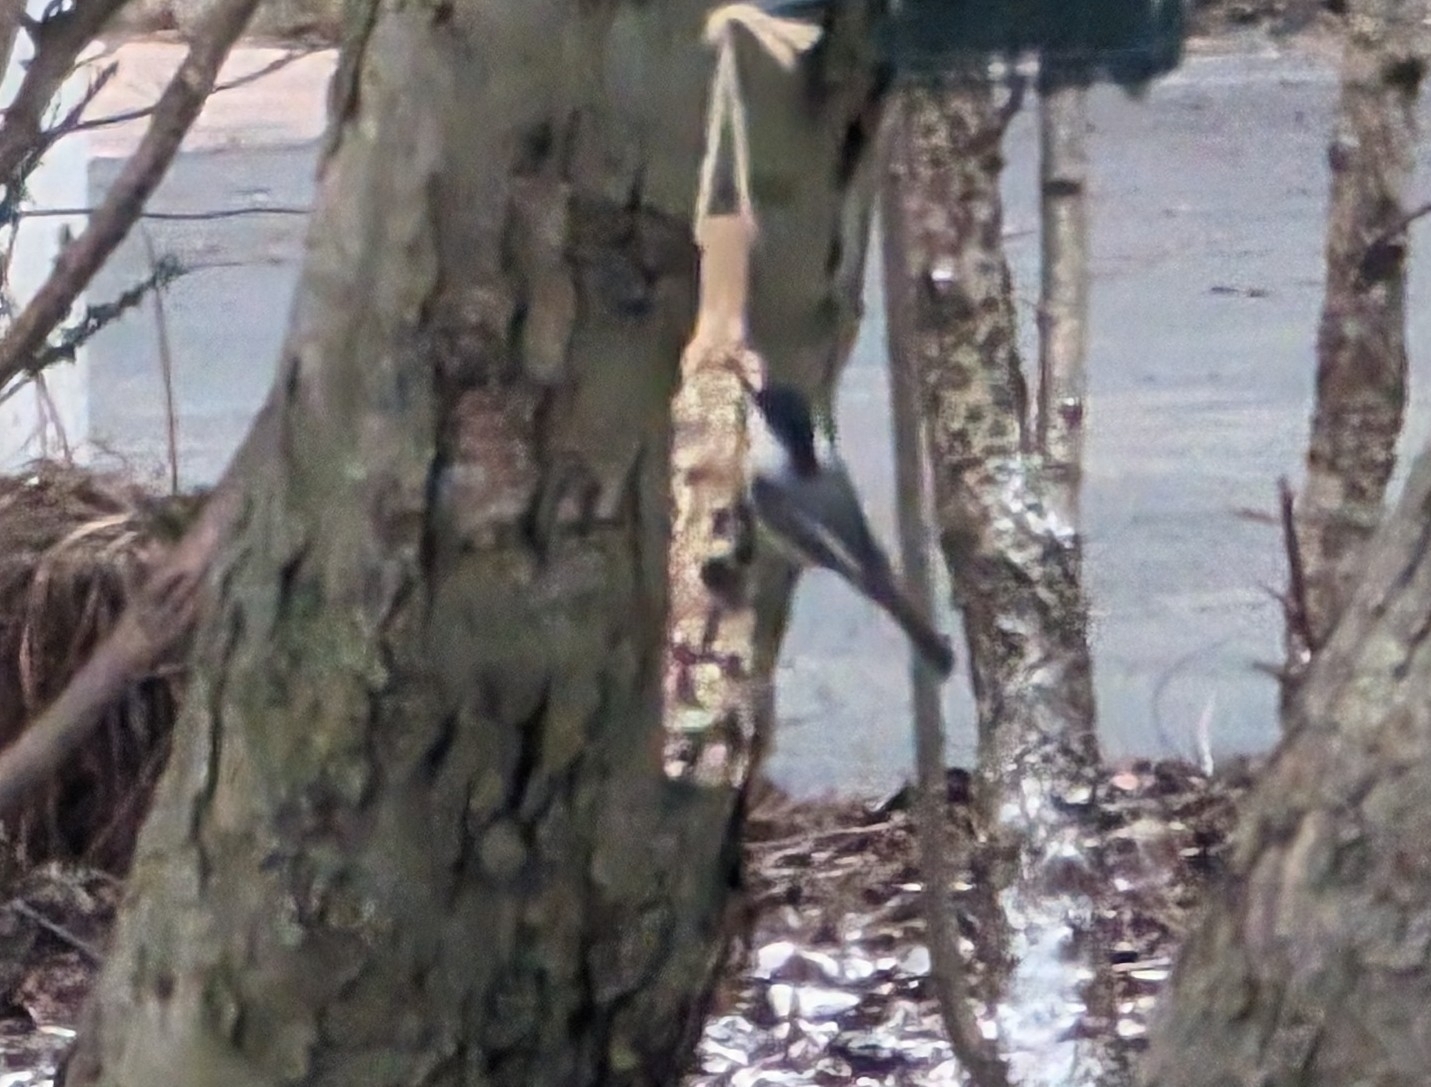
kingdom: Animalia
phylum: Chordata
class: Aves
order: Passeriformes
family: Paridae
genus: Poecile
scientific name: Poecile atricapillus
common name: Black-capped chickadee
